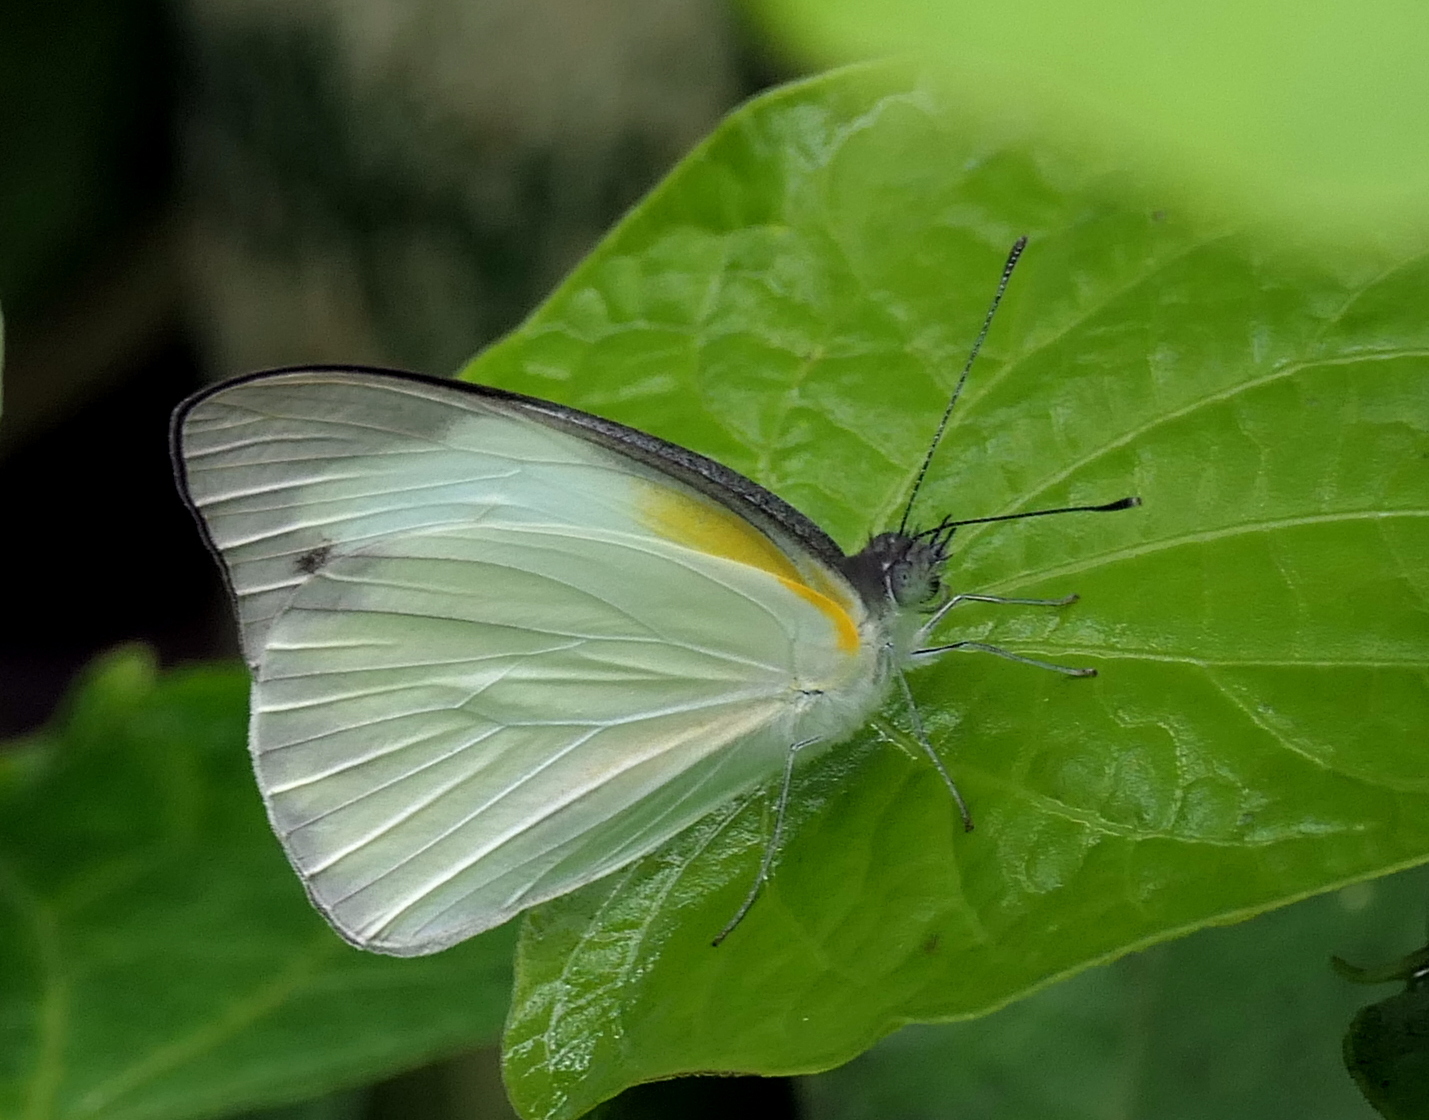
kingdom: Animalia
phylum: Arthropoda
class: Insecta
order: Lepidoptera
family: Pieridae
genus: Ascia
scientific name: Ascia monuste
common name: Great southern white
